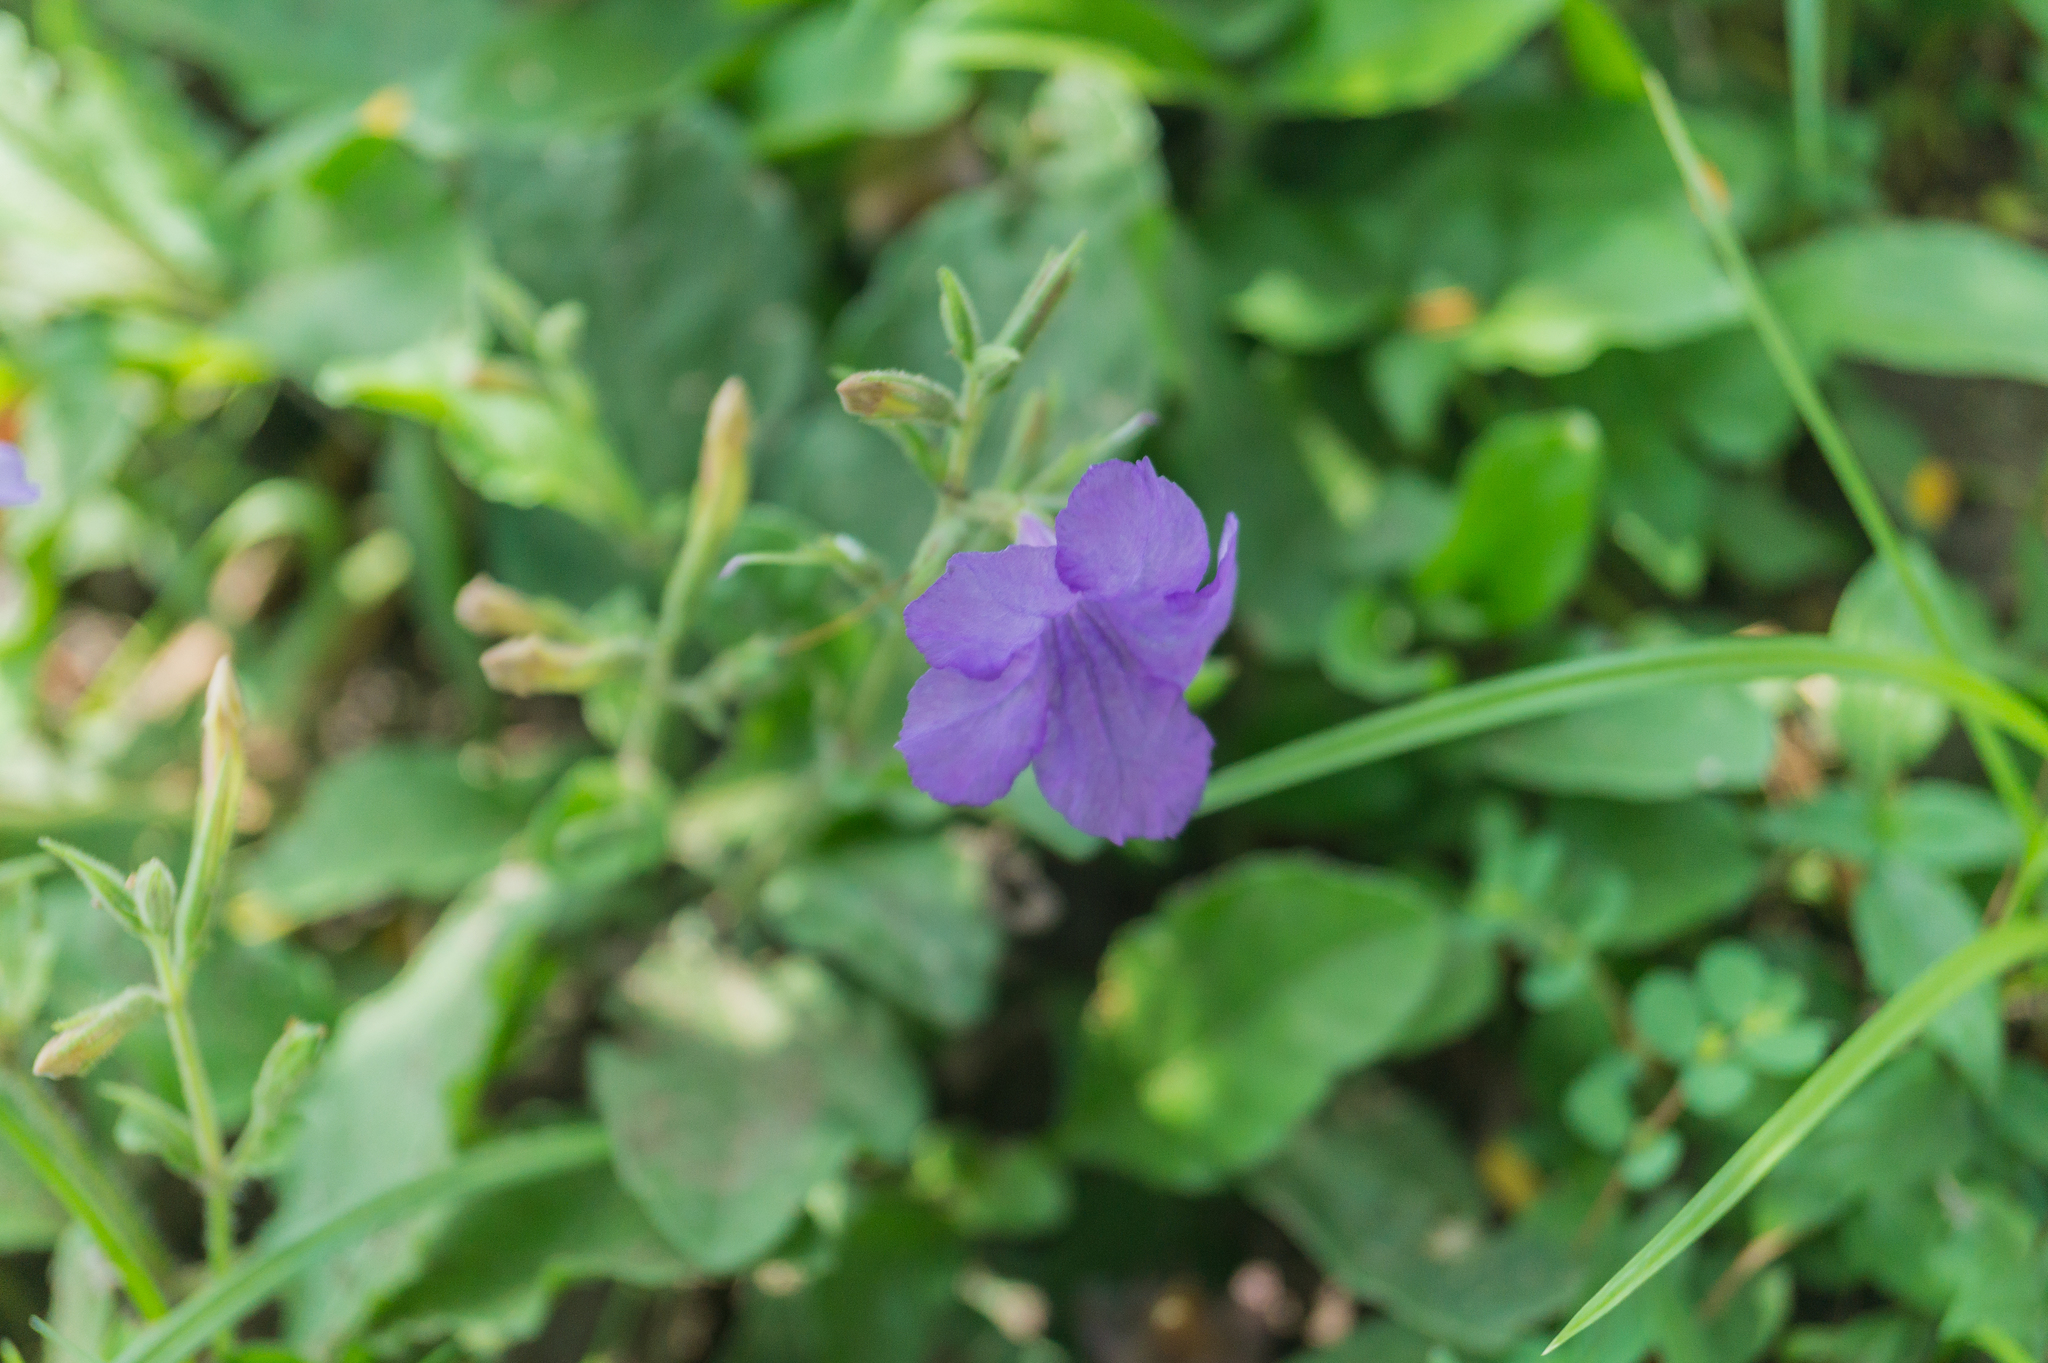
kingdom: Plantae
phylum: Tracheophyta
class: Magnoliopsida
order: Lamiales
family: Acanthaceae
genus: Ruellia
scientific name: Ruellia ciliatiflora
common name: Hairyflower wild petunia
